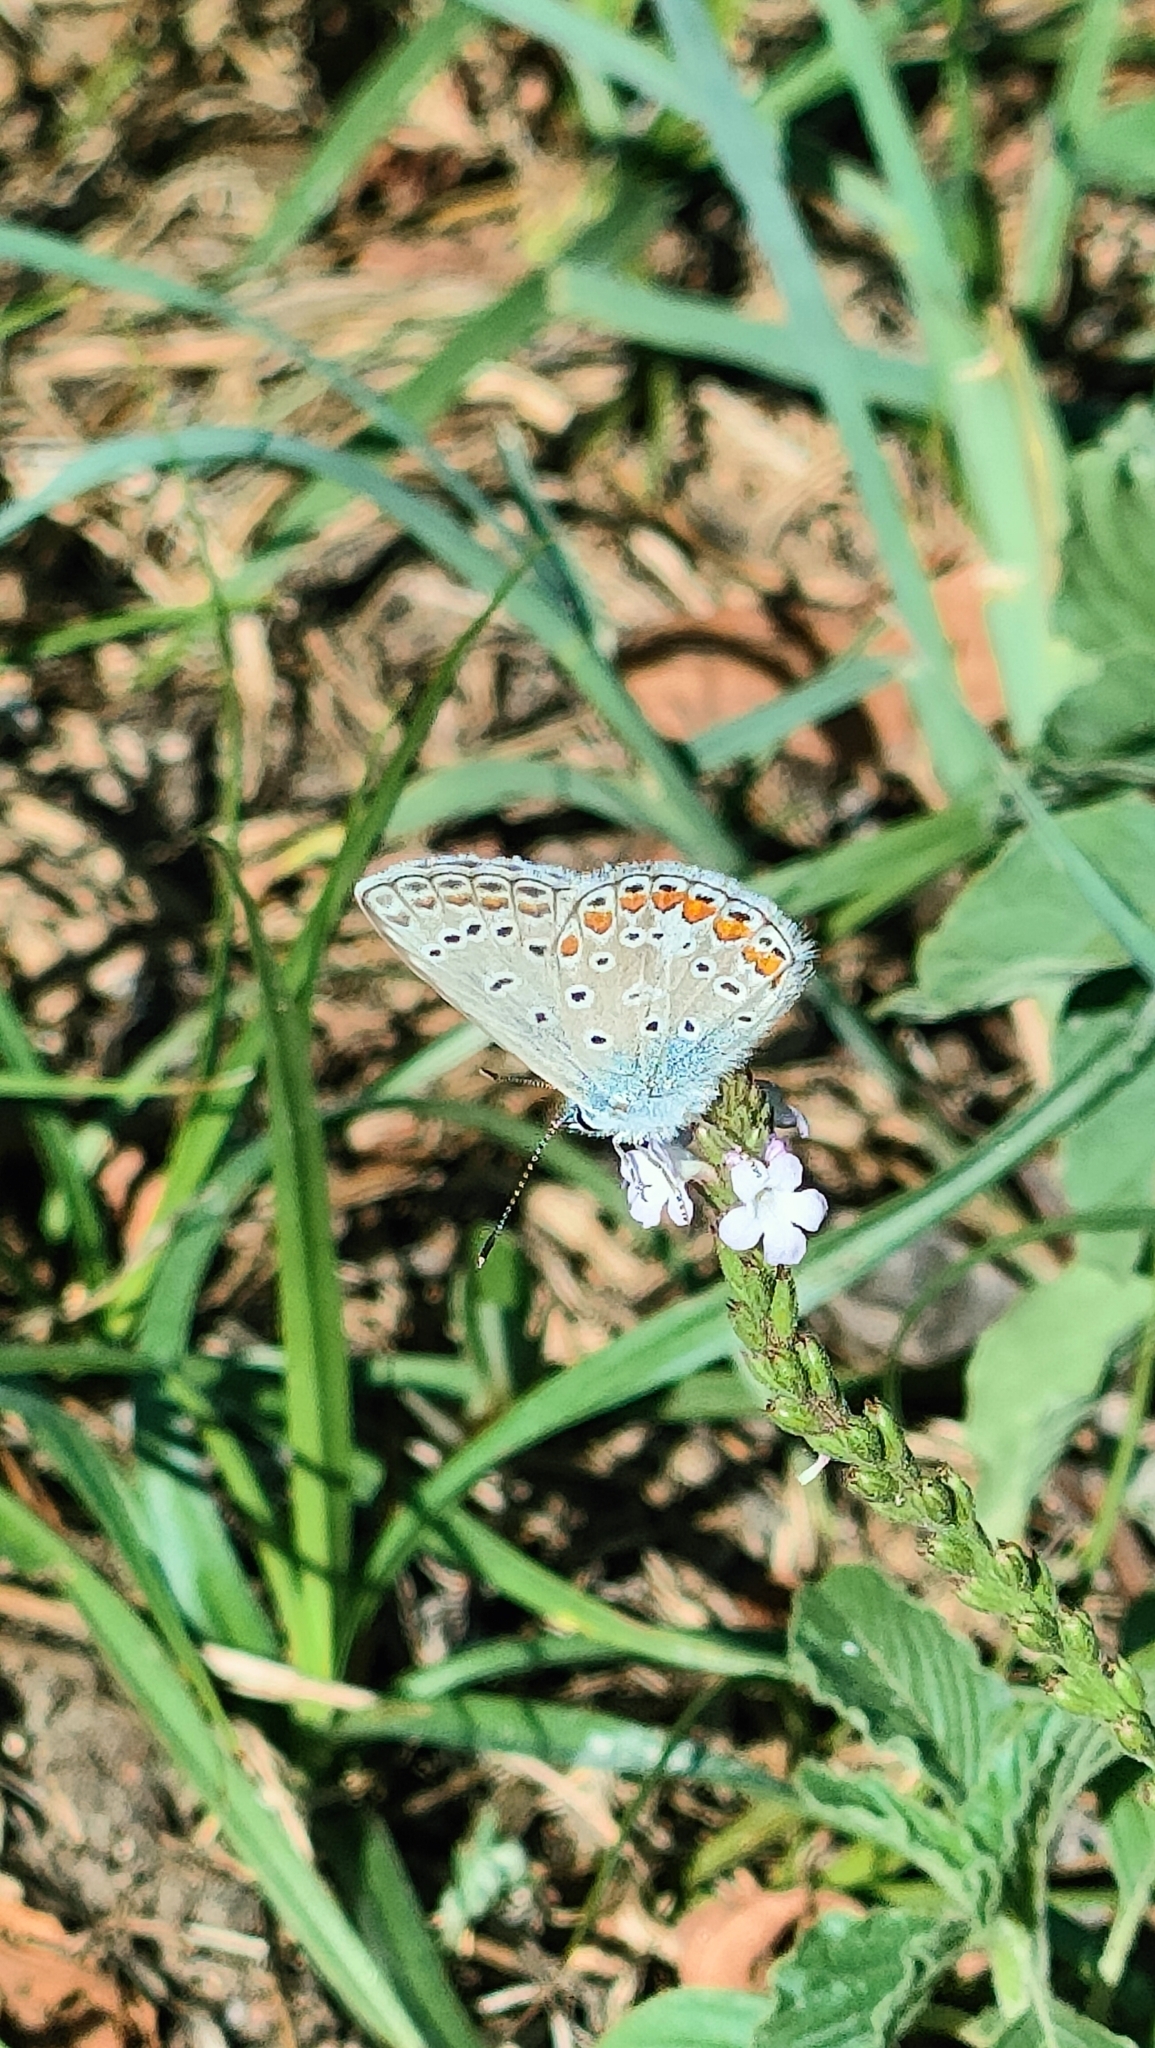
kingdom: Animalia
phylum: Arthropoda
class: Insecta
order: Lepidoptera
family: Lycaenidae
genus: Polyommatus
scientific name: Polyommatus icarus
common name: Common blue
